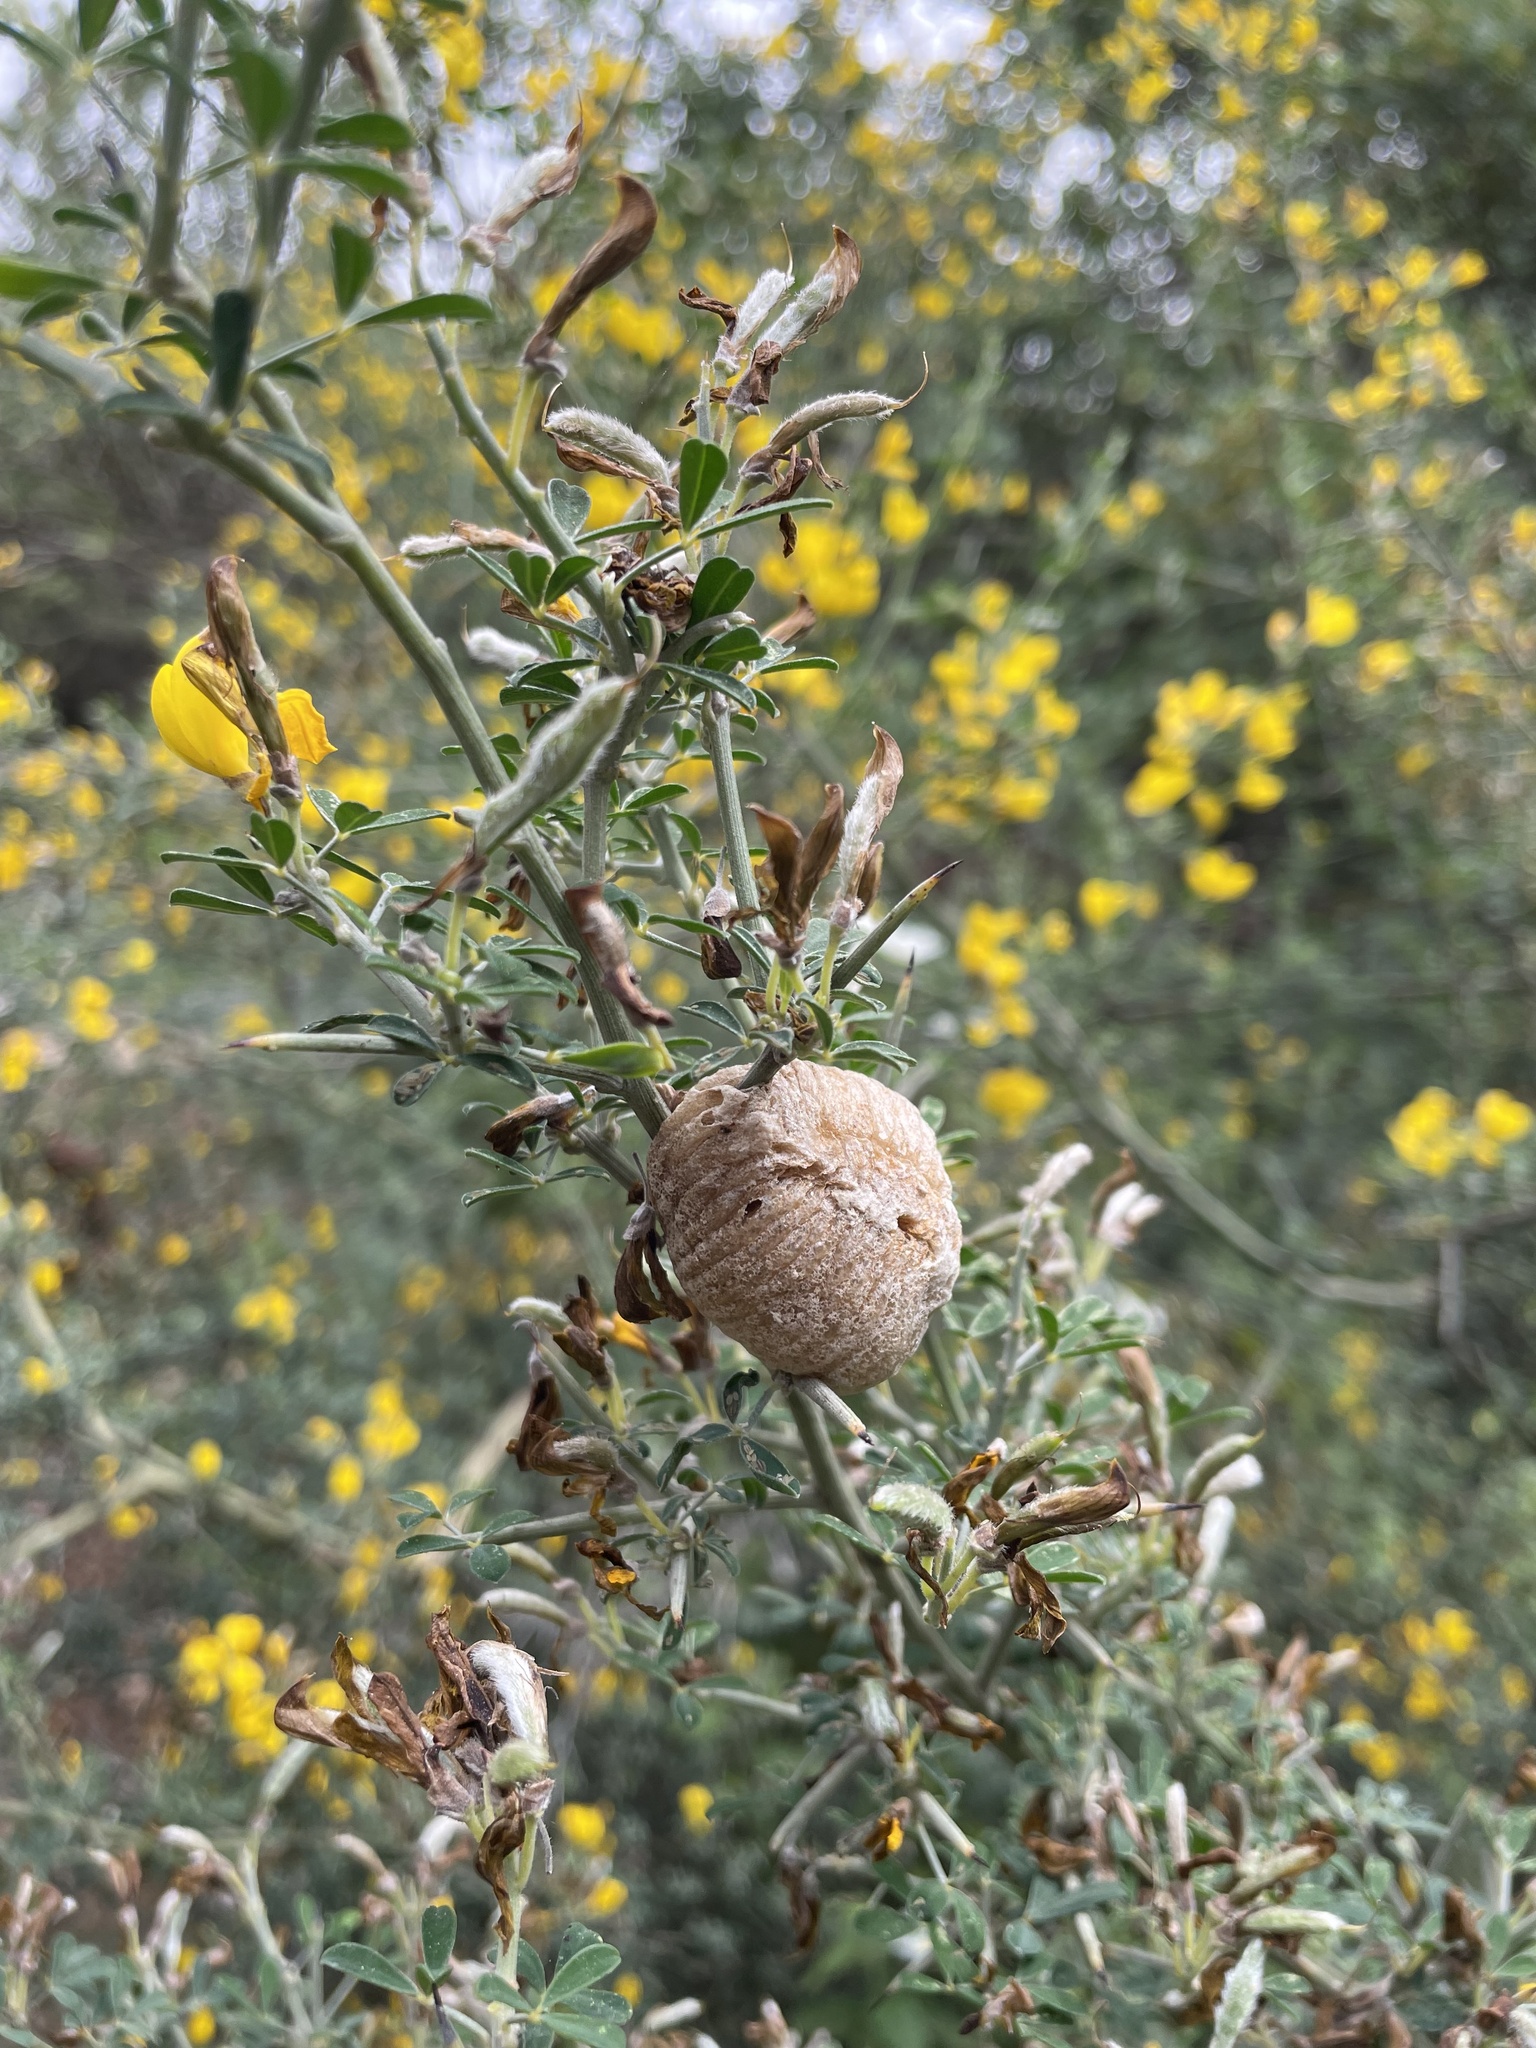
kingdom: Animalia
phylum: Arthropoda
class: Insecta
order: Mantodea
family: Mantidae
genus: Sphodromantis
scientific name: Sphodromantis viridis
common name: Giant african mantis
